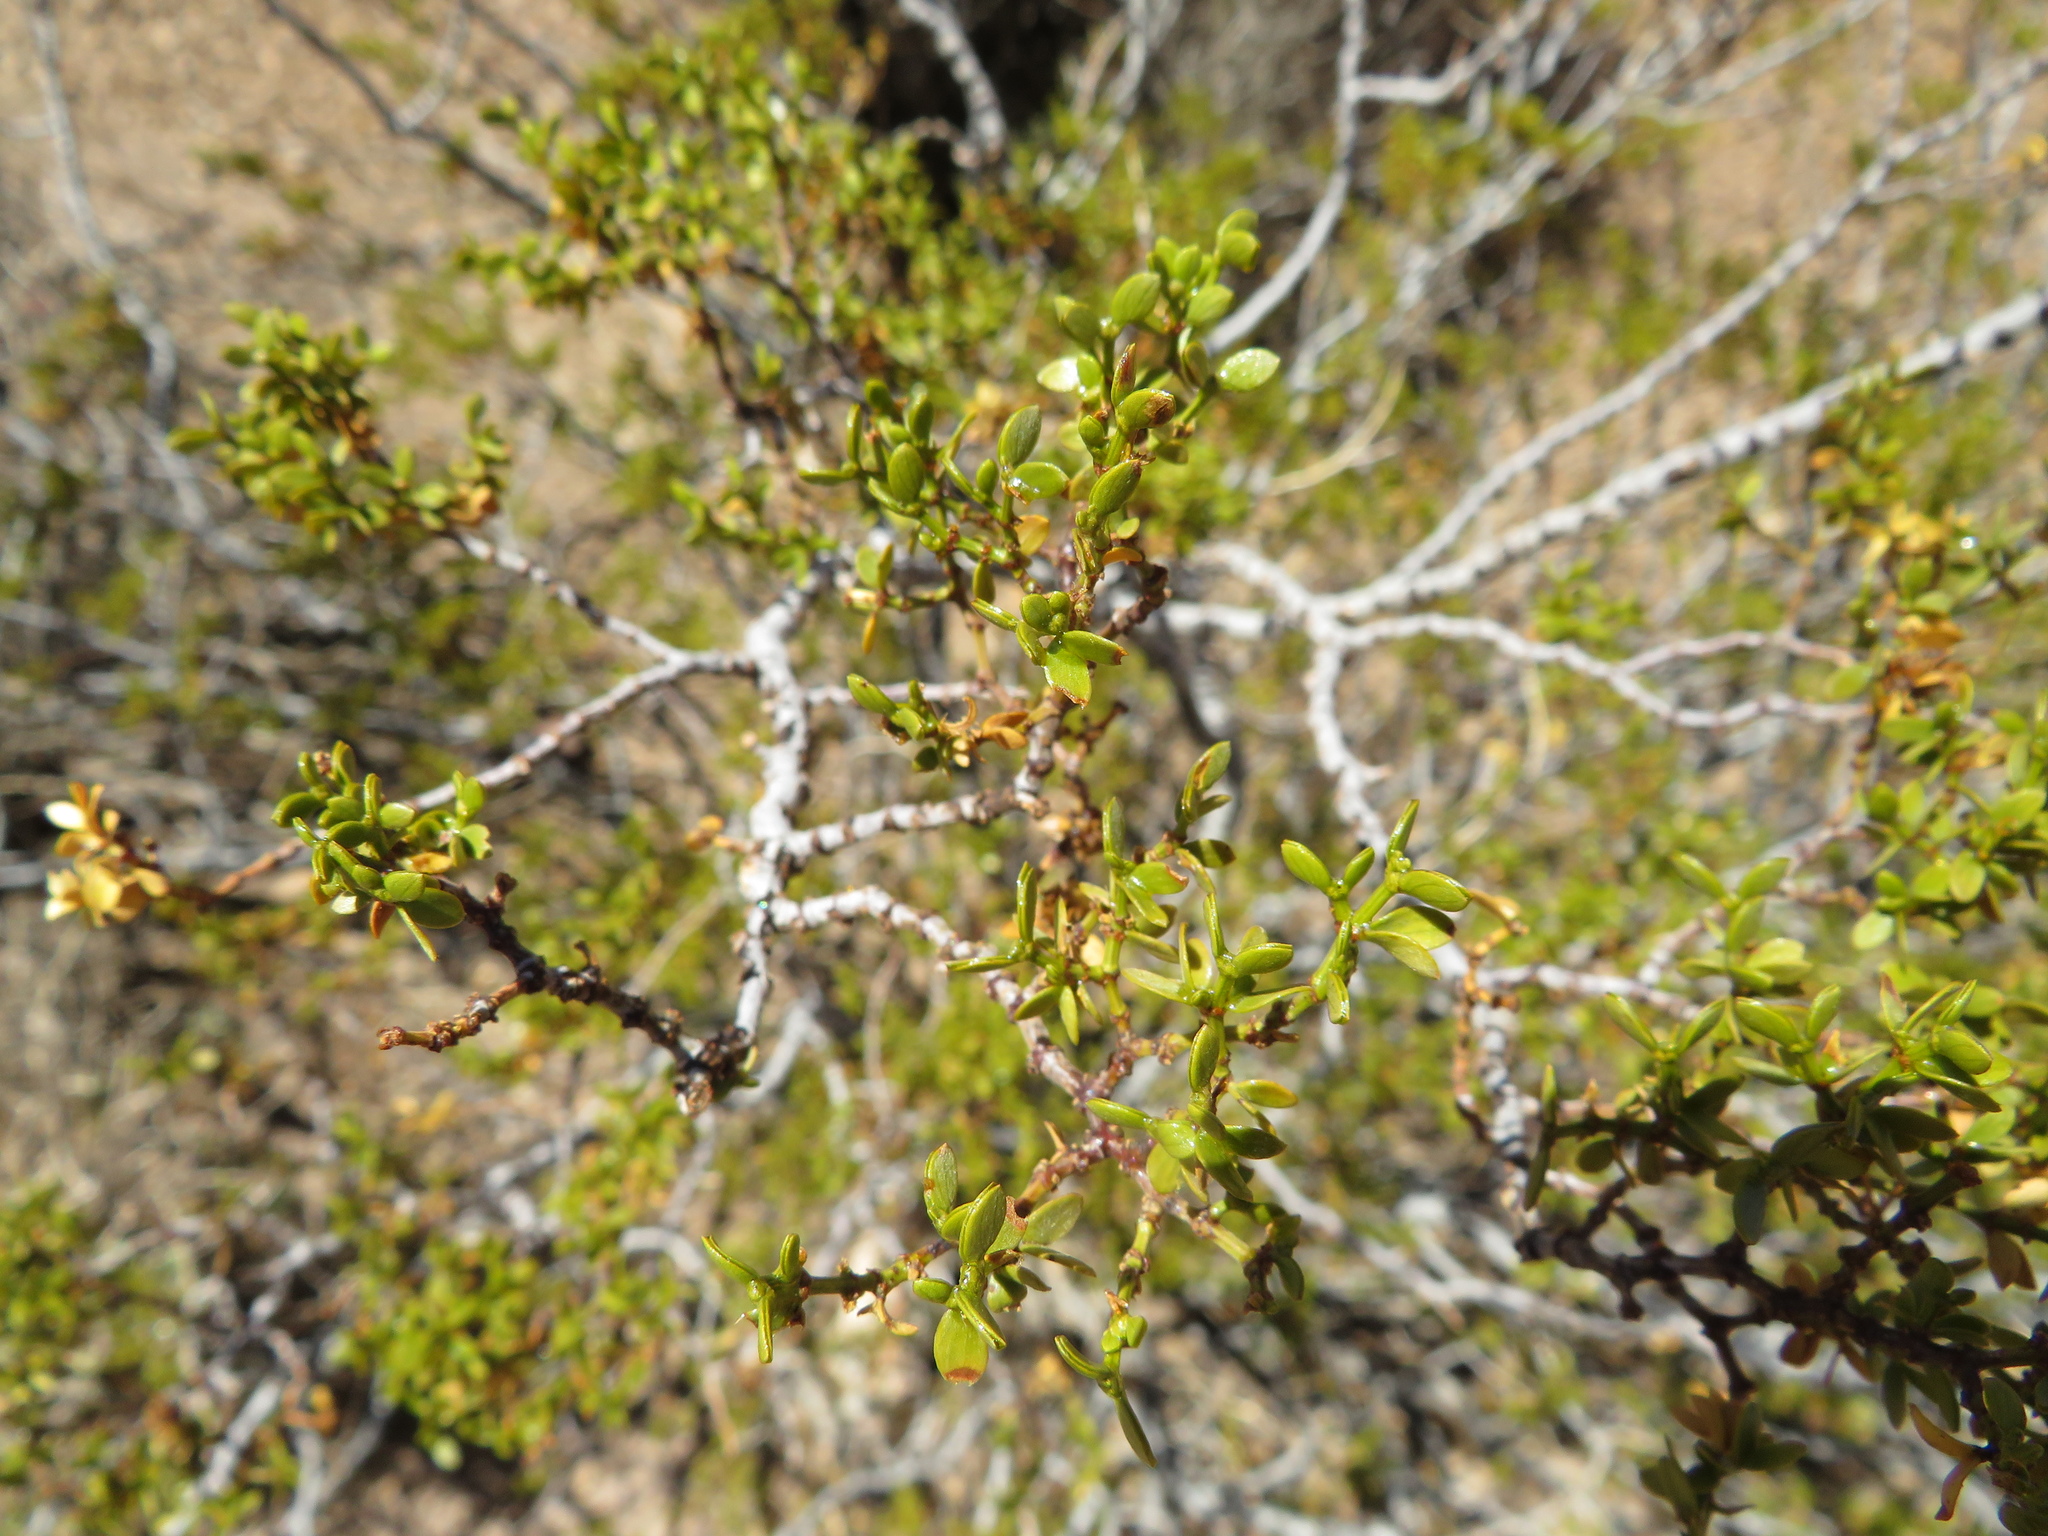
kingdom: Plantae
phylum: Tracheophyta
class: Magnoliopsida
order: Zygophyllales
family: Zygophyllaceae
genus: Larrea
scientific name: Larrea divaricata
